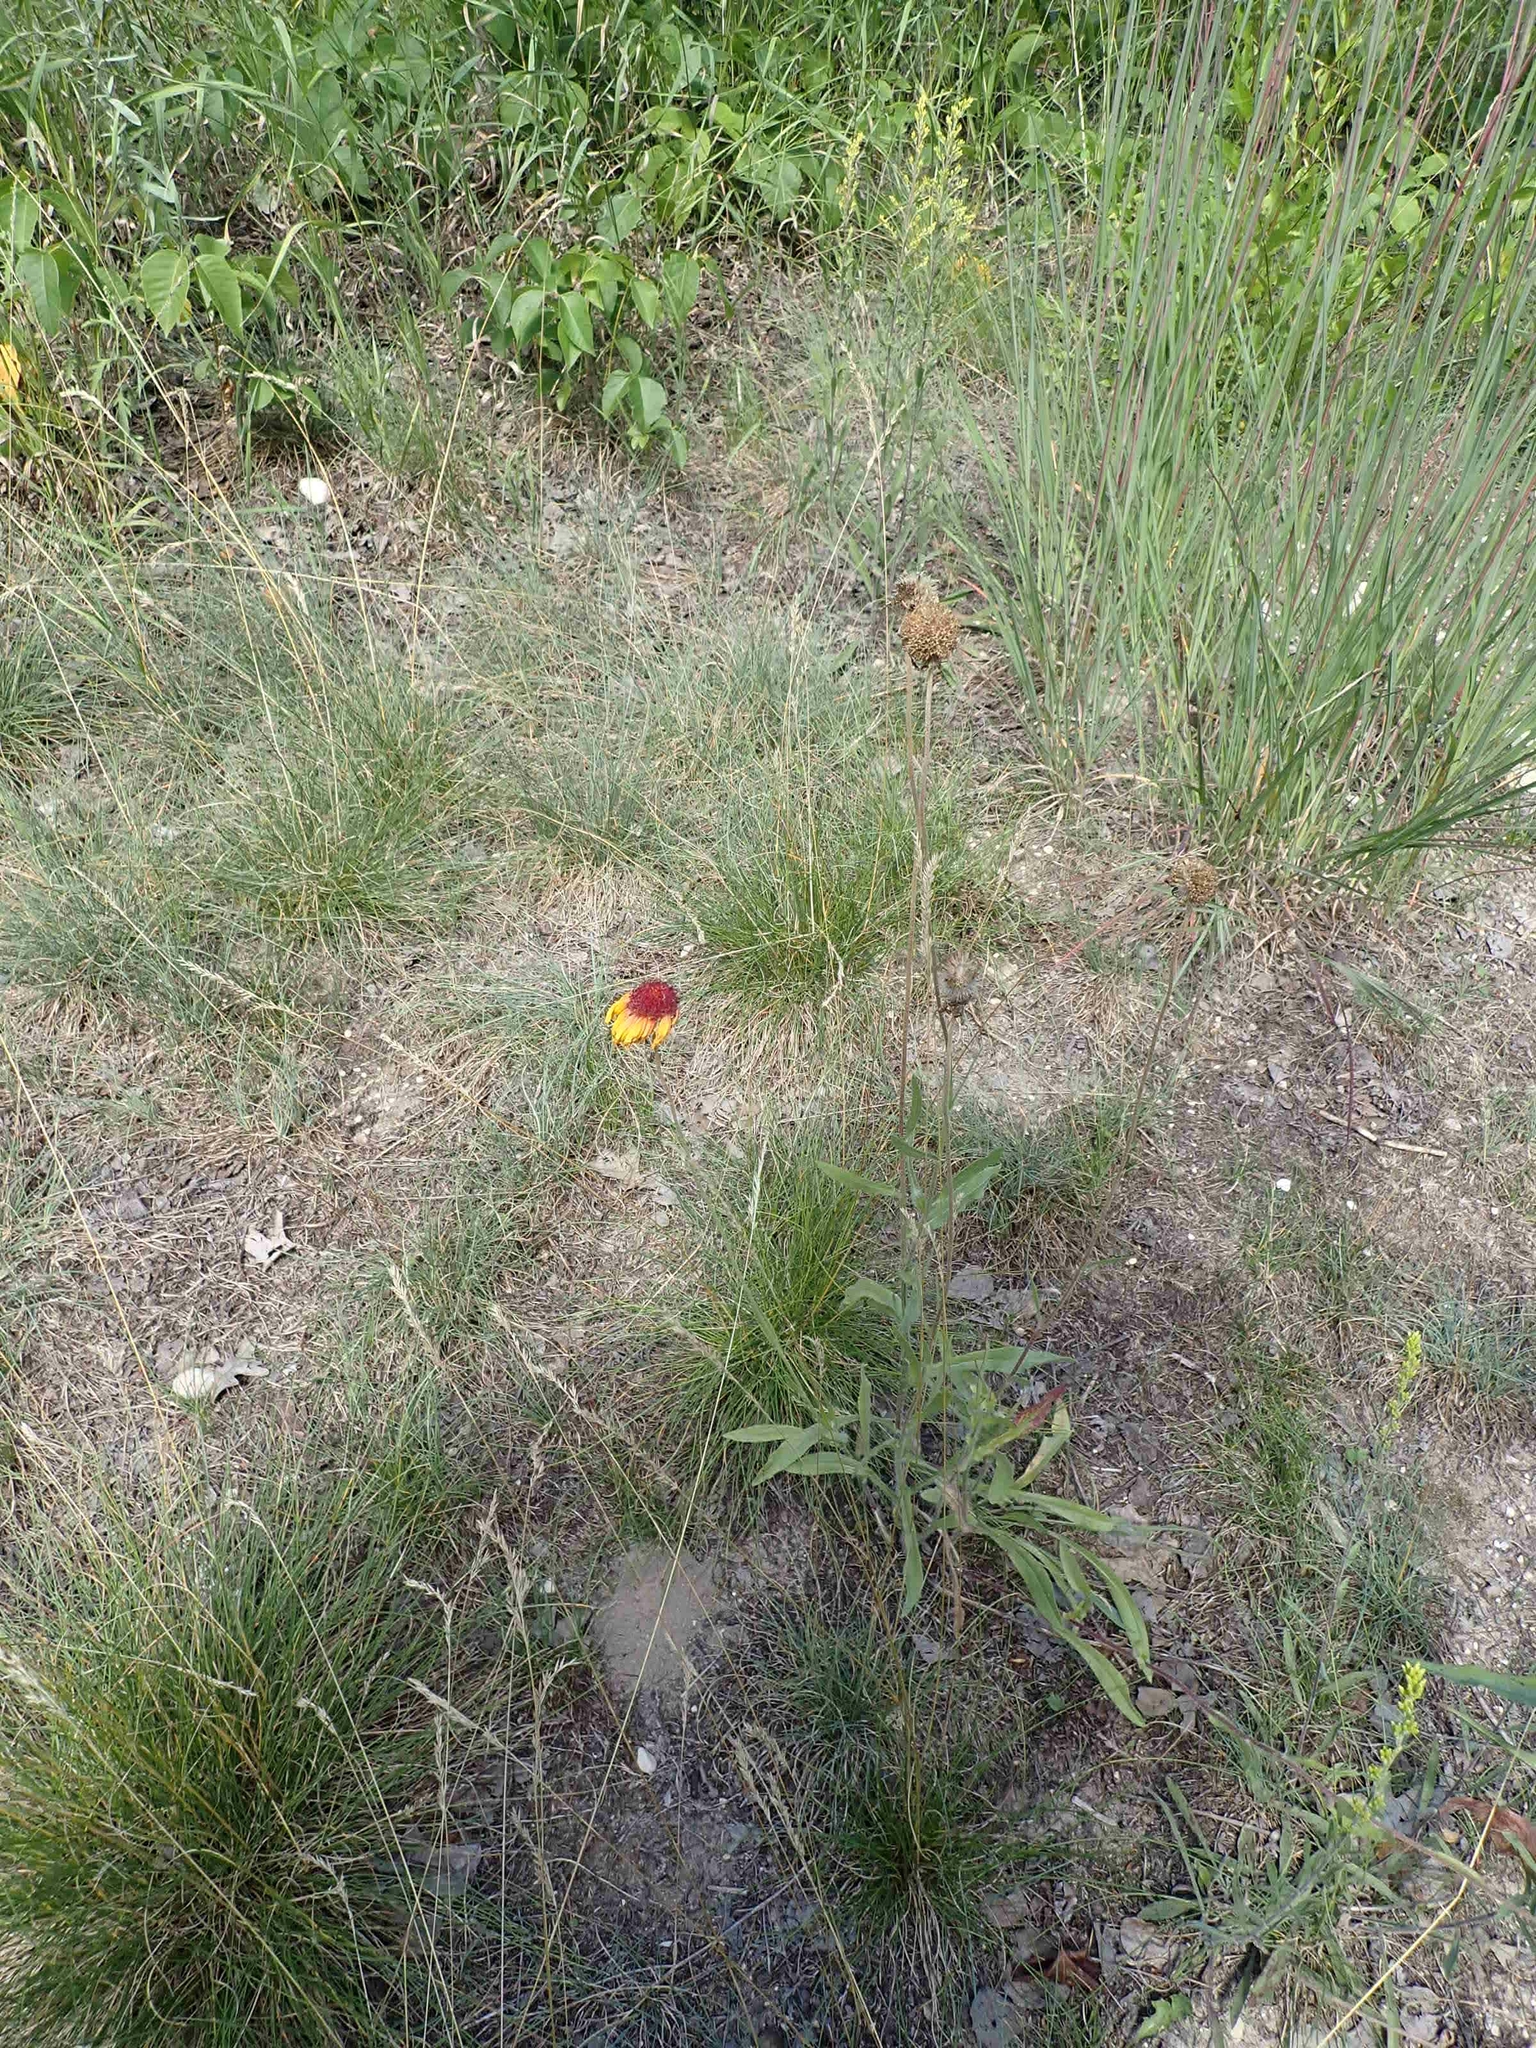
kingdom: Plantae
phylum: Tracheophyta
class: Magnoliopsida
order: Asterales
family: Asteraceae
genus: Gaillardia
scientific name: Gaillardia aristata
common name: Blanket-flower
